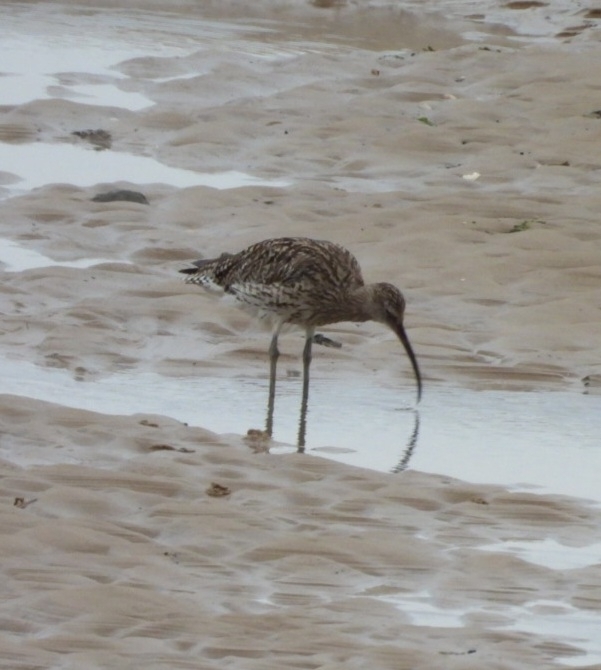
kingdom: Animalia
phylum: Chordata
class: Aves
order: Charadriiformes
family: Scolopacidae
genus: Numenius
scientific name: Numenius arquata
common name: Eurasian curlew
